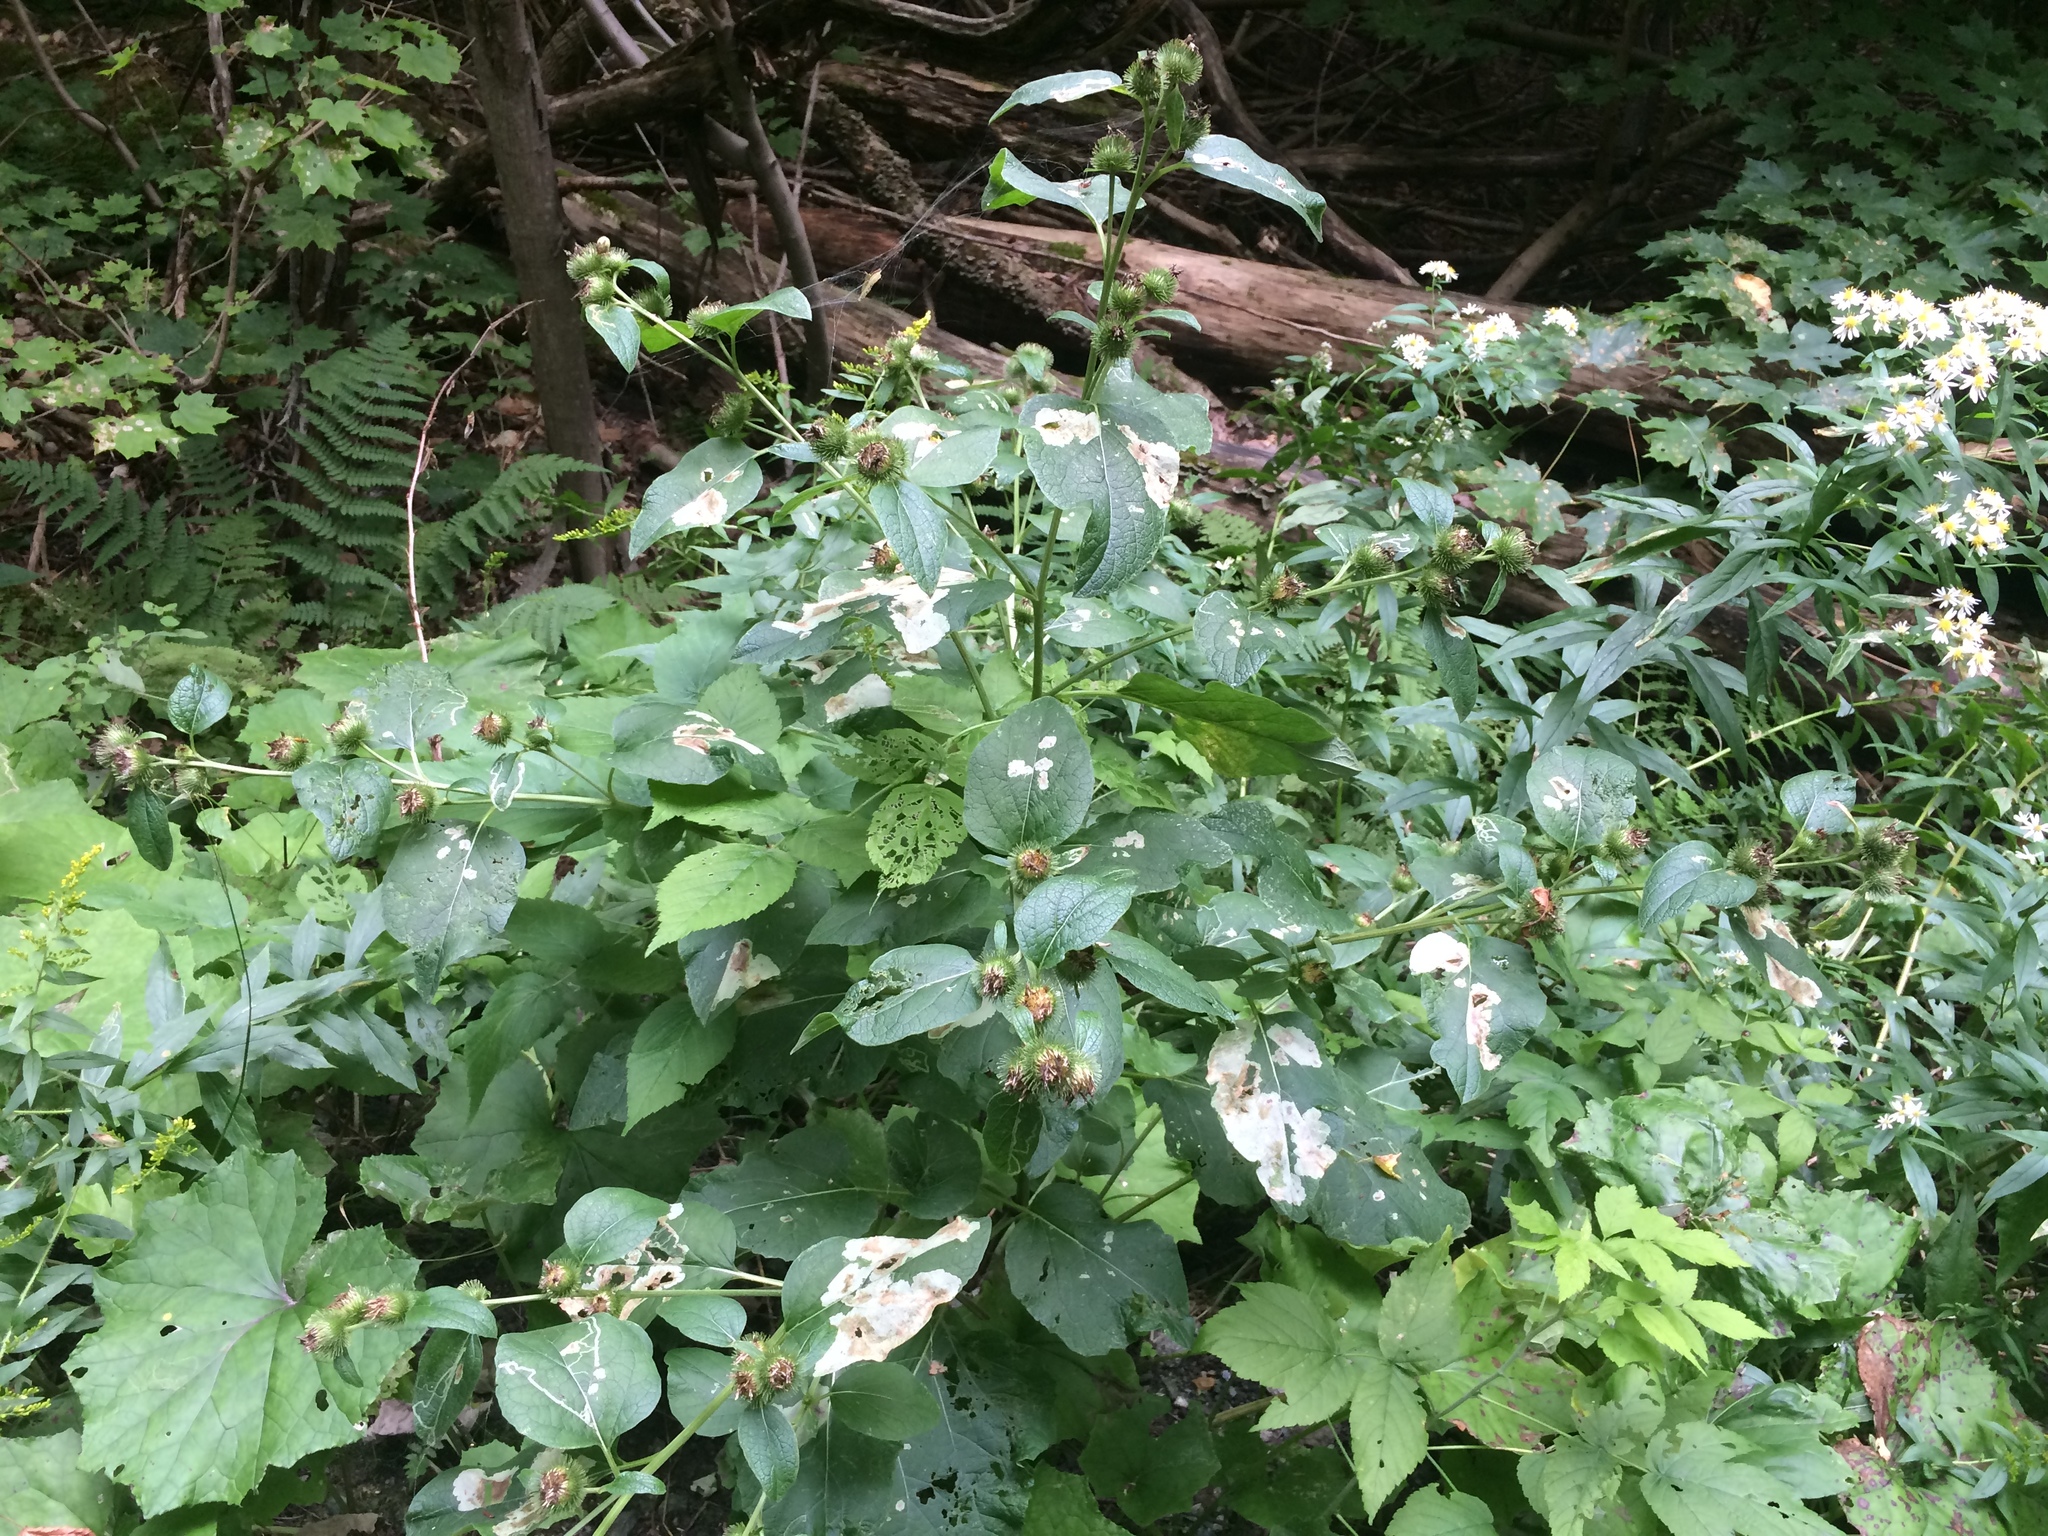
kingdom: Plantae
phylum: Tracheophyta
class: Magnoliopsida
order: Asterales
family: Asteraceae
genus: Arctium
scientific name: Arctium minus
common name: Lesser burdock
